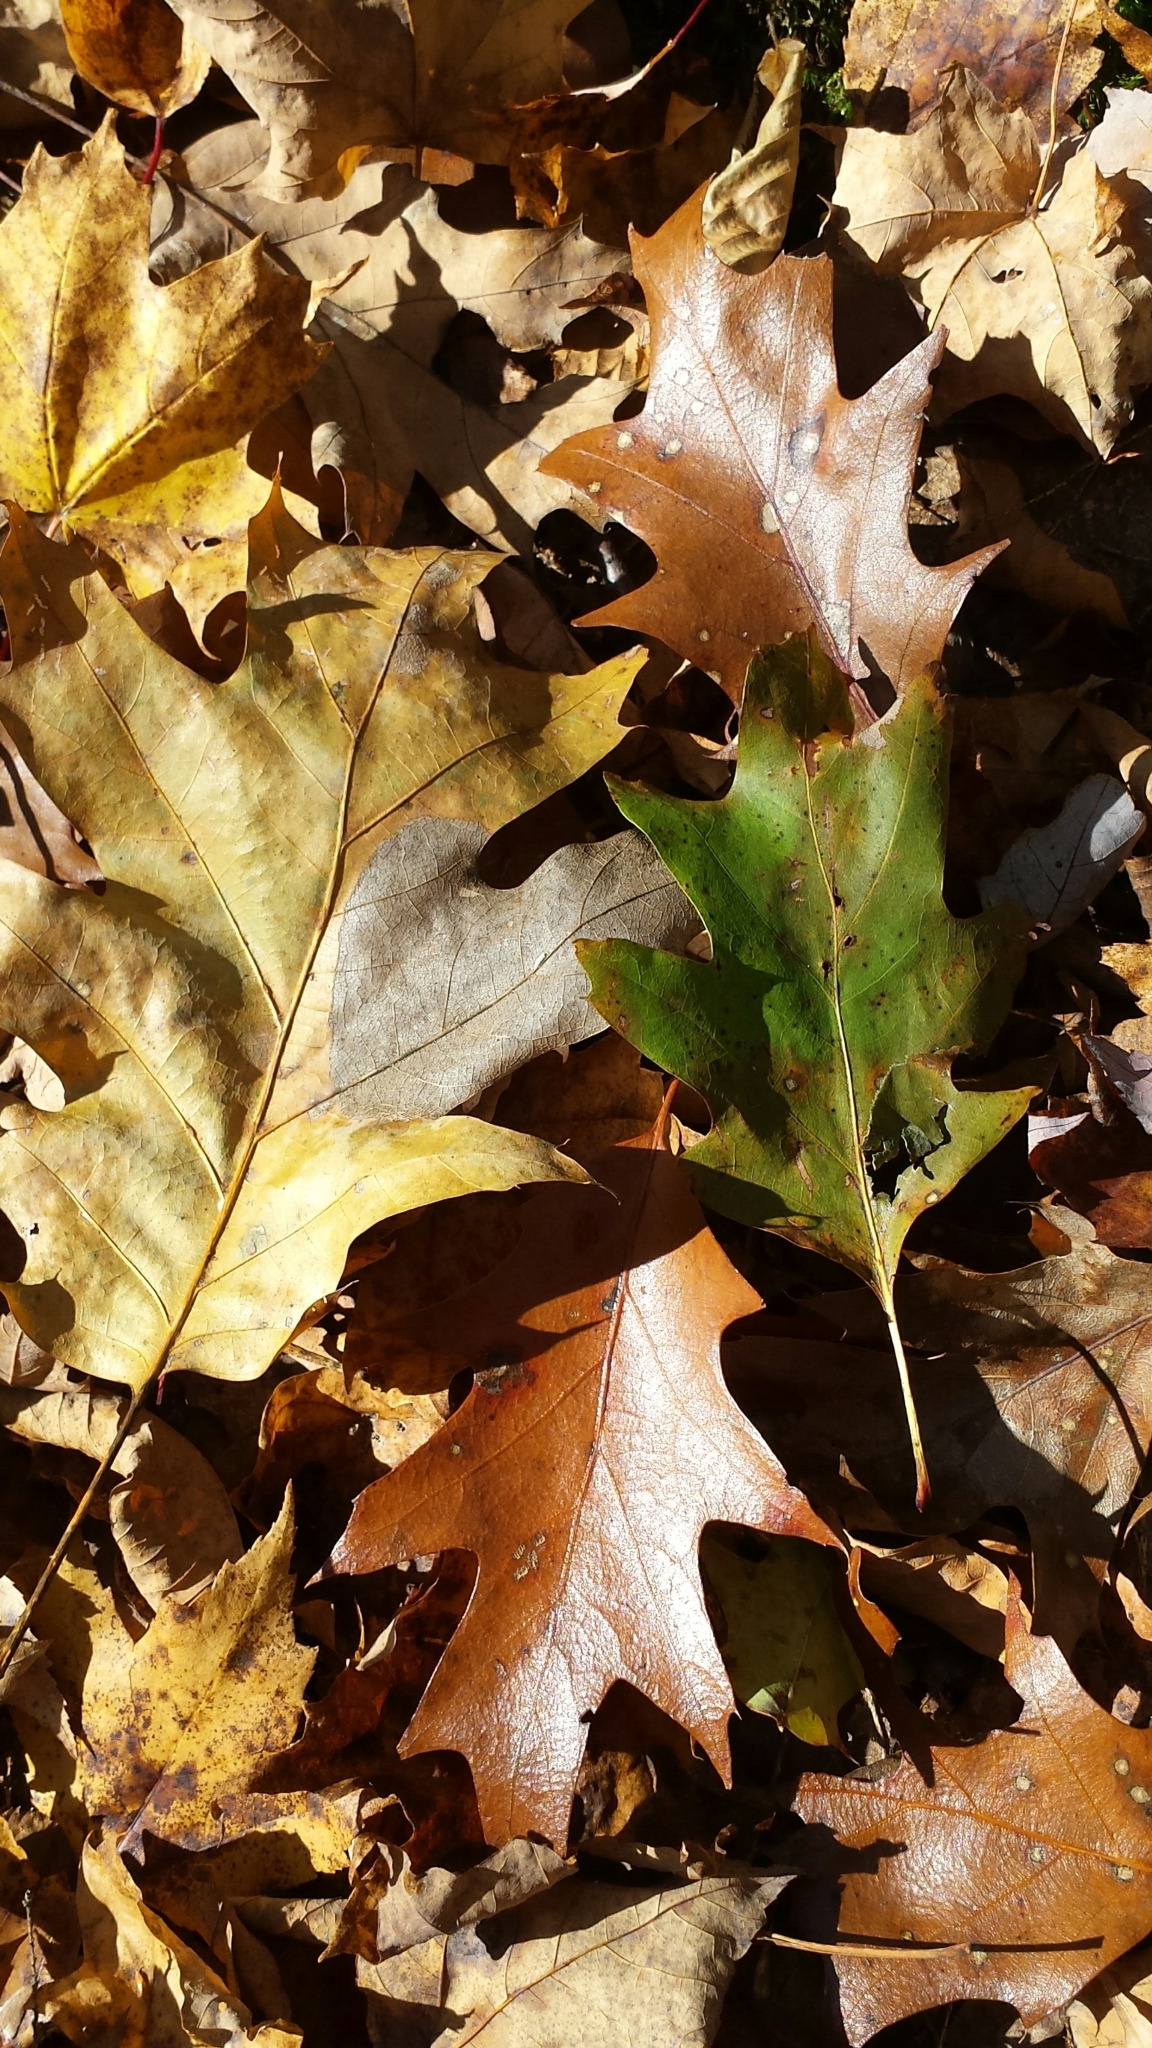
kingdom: Plantae
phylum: Tracheophyta
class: Magnoliopsida
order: Fagales
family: Fagaceae
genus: Quercus
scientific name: Quercus rubra
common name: Red oak
